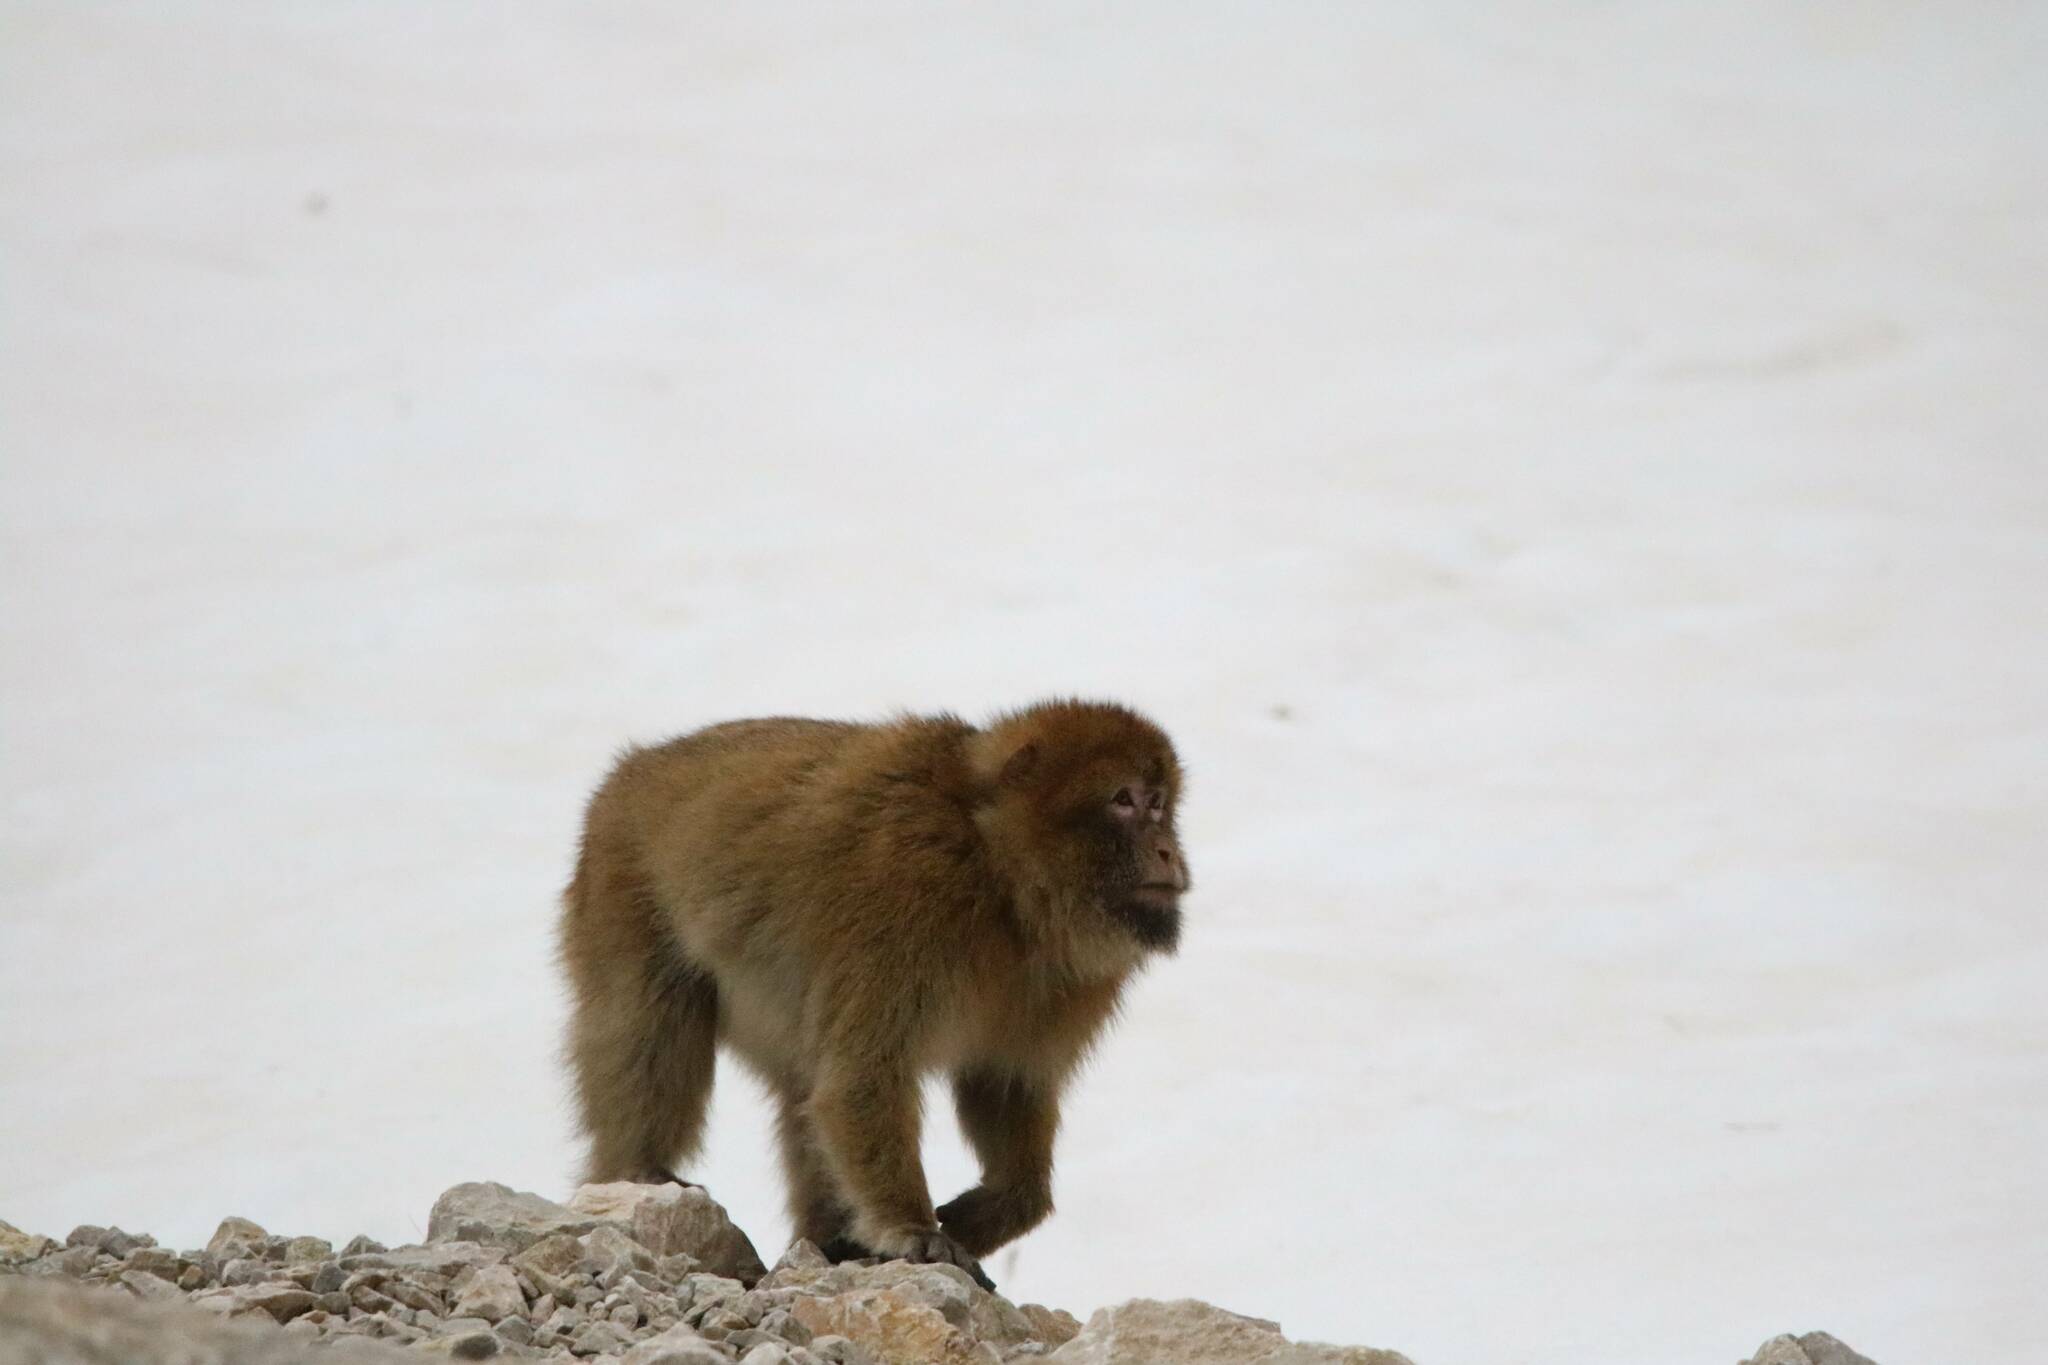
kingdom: Animalia
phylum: Chordata
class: Mammalia
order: Primates
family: Cercopithecidae
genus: Macaca
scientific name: Macaca sylvanus
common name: Barbary macaque
